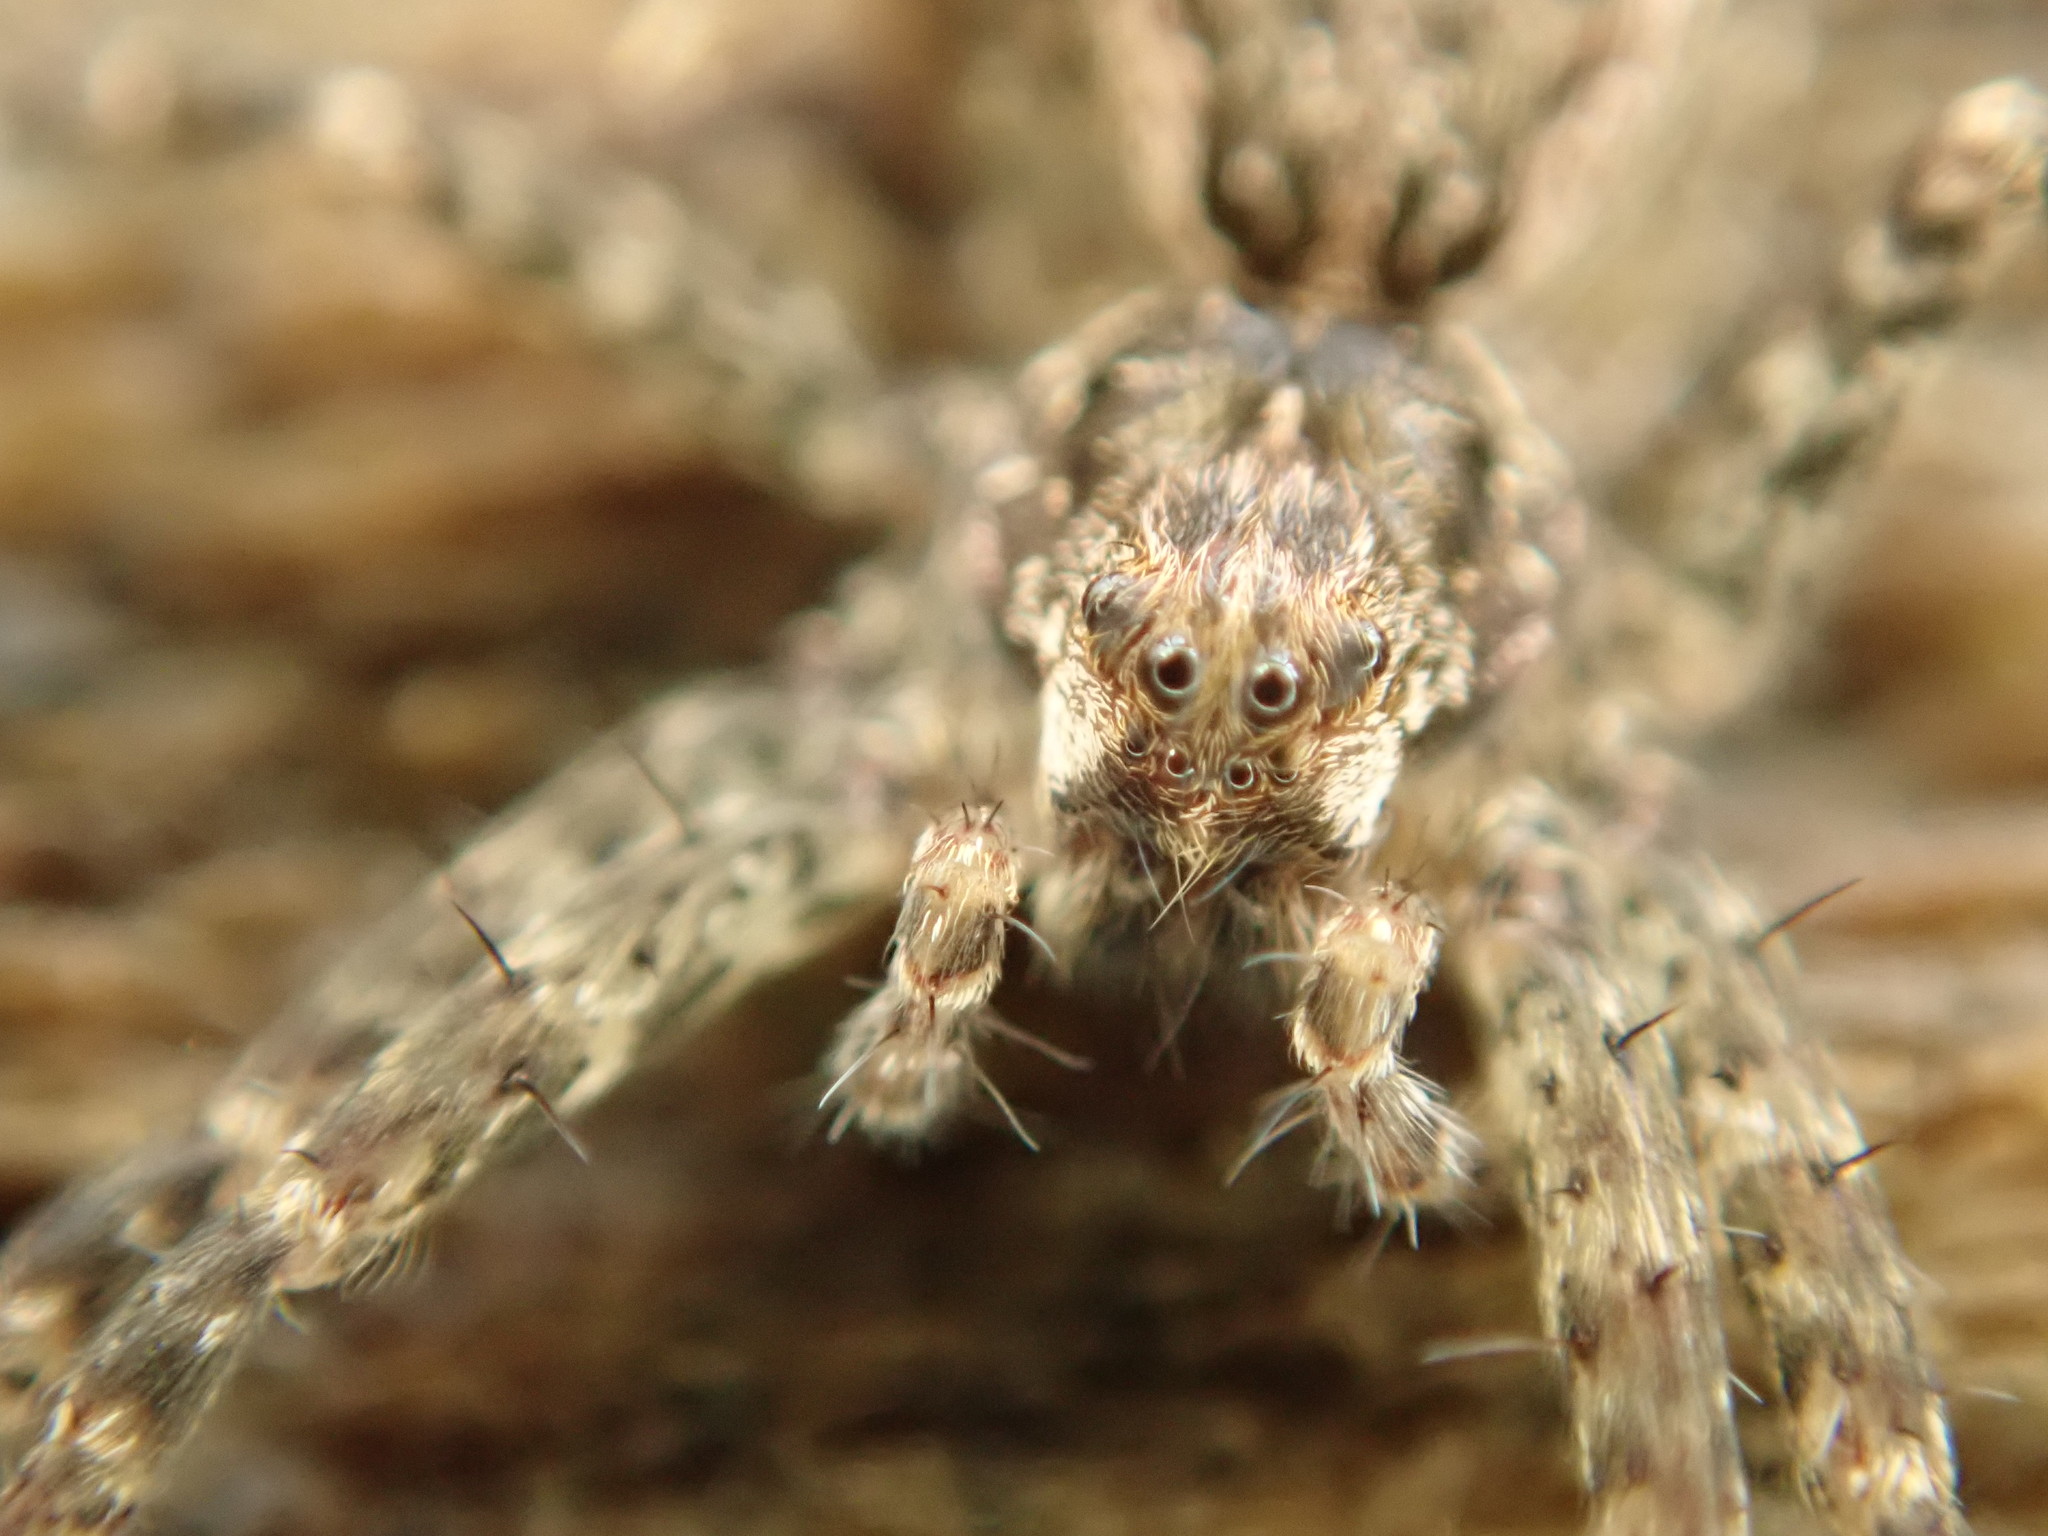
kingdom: Animalia
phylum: Arthropoda
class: Arachnida
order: Araneae
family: Pisauridae
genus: Dolomedes
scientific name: Dolomedes tenebrosus
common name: Dark fishing spider
